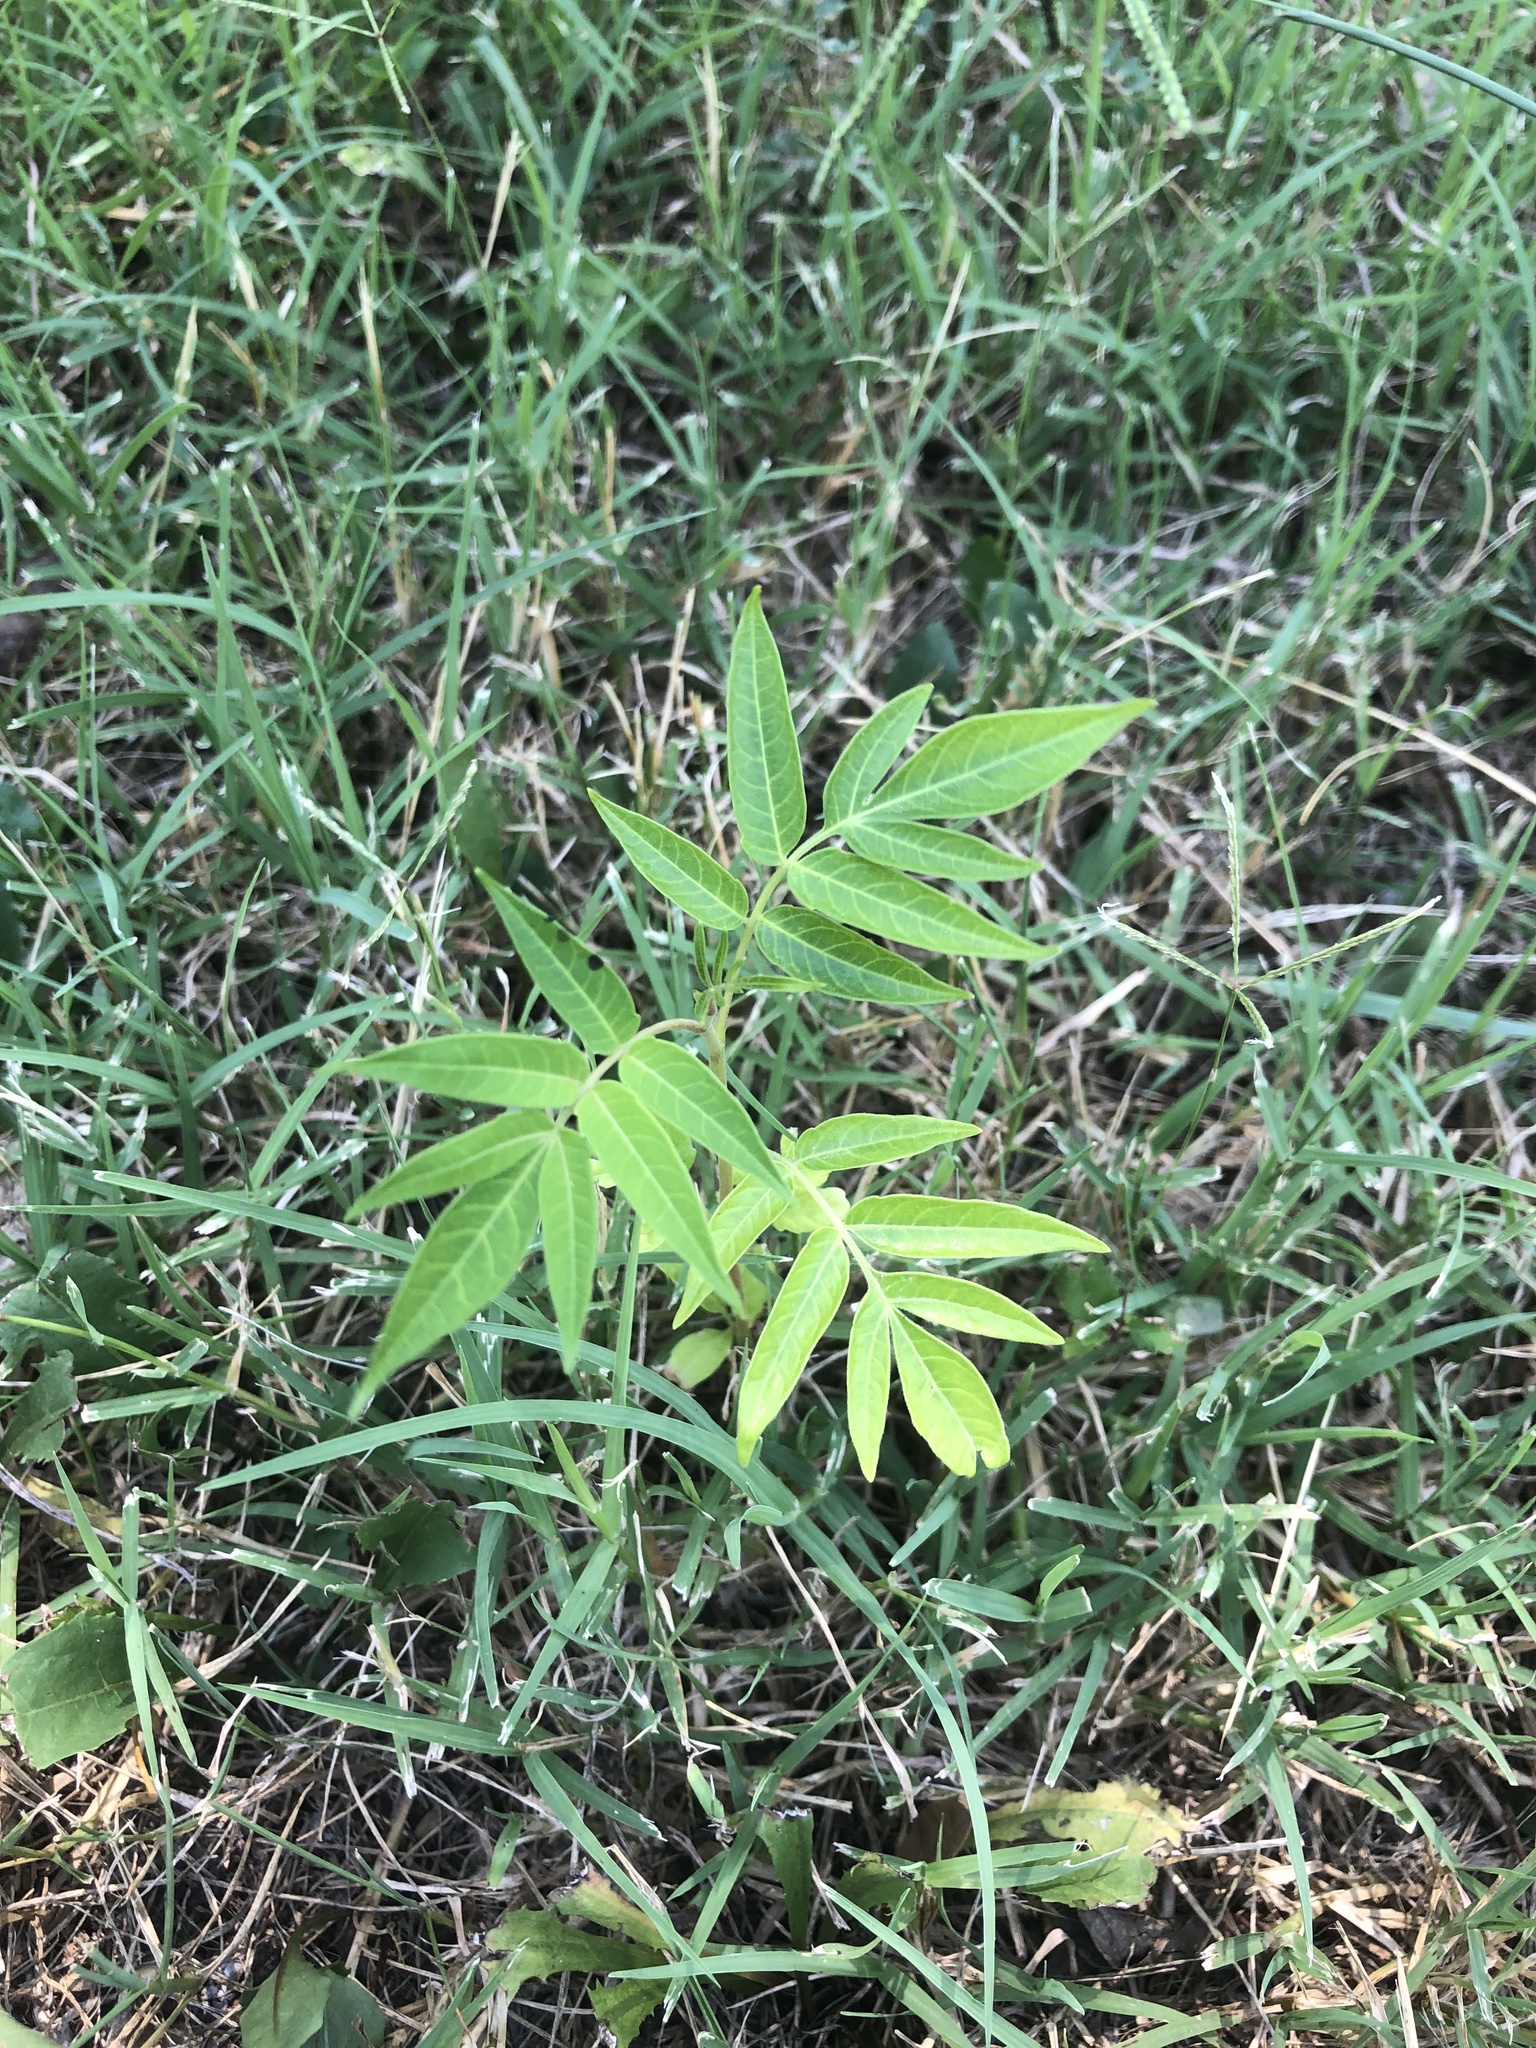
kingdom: Plantae
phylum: Tracheophyta
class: Magnoliopsida
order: Sapindales
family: Simaroubaceae
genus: Ailanthus
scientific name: Ailanthus altissima
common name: Tree-of-heaven
